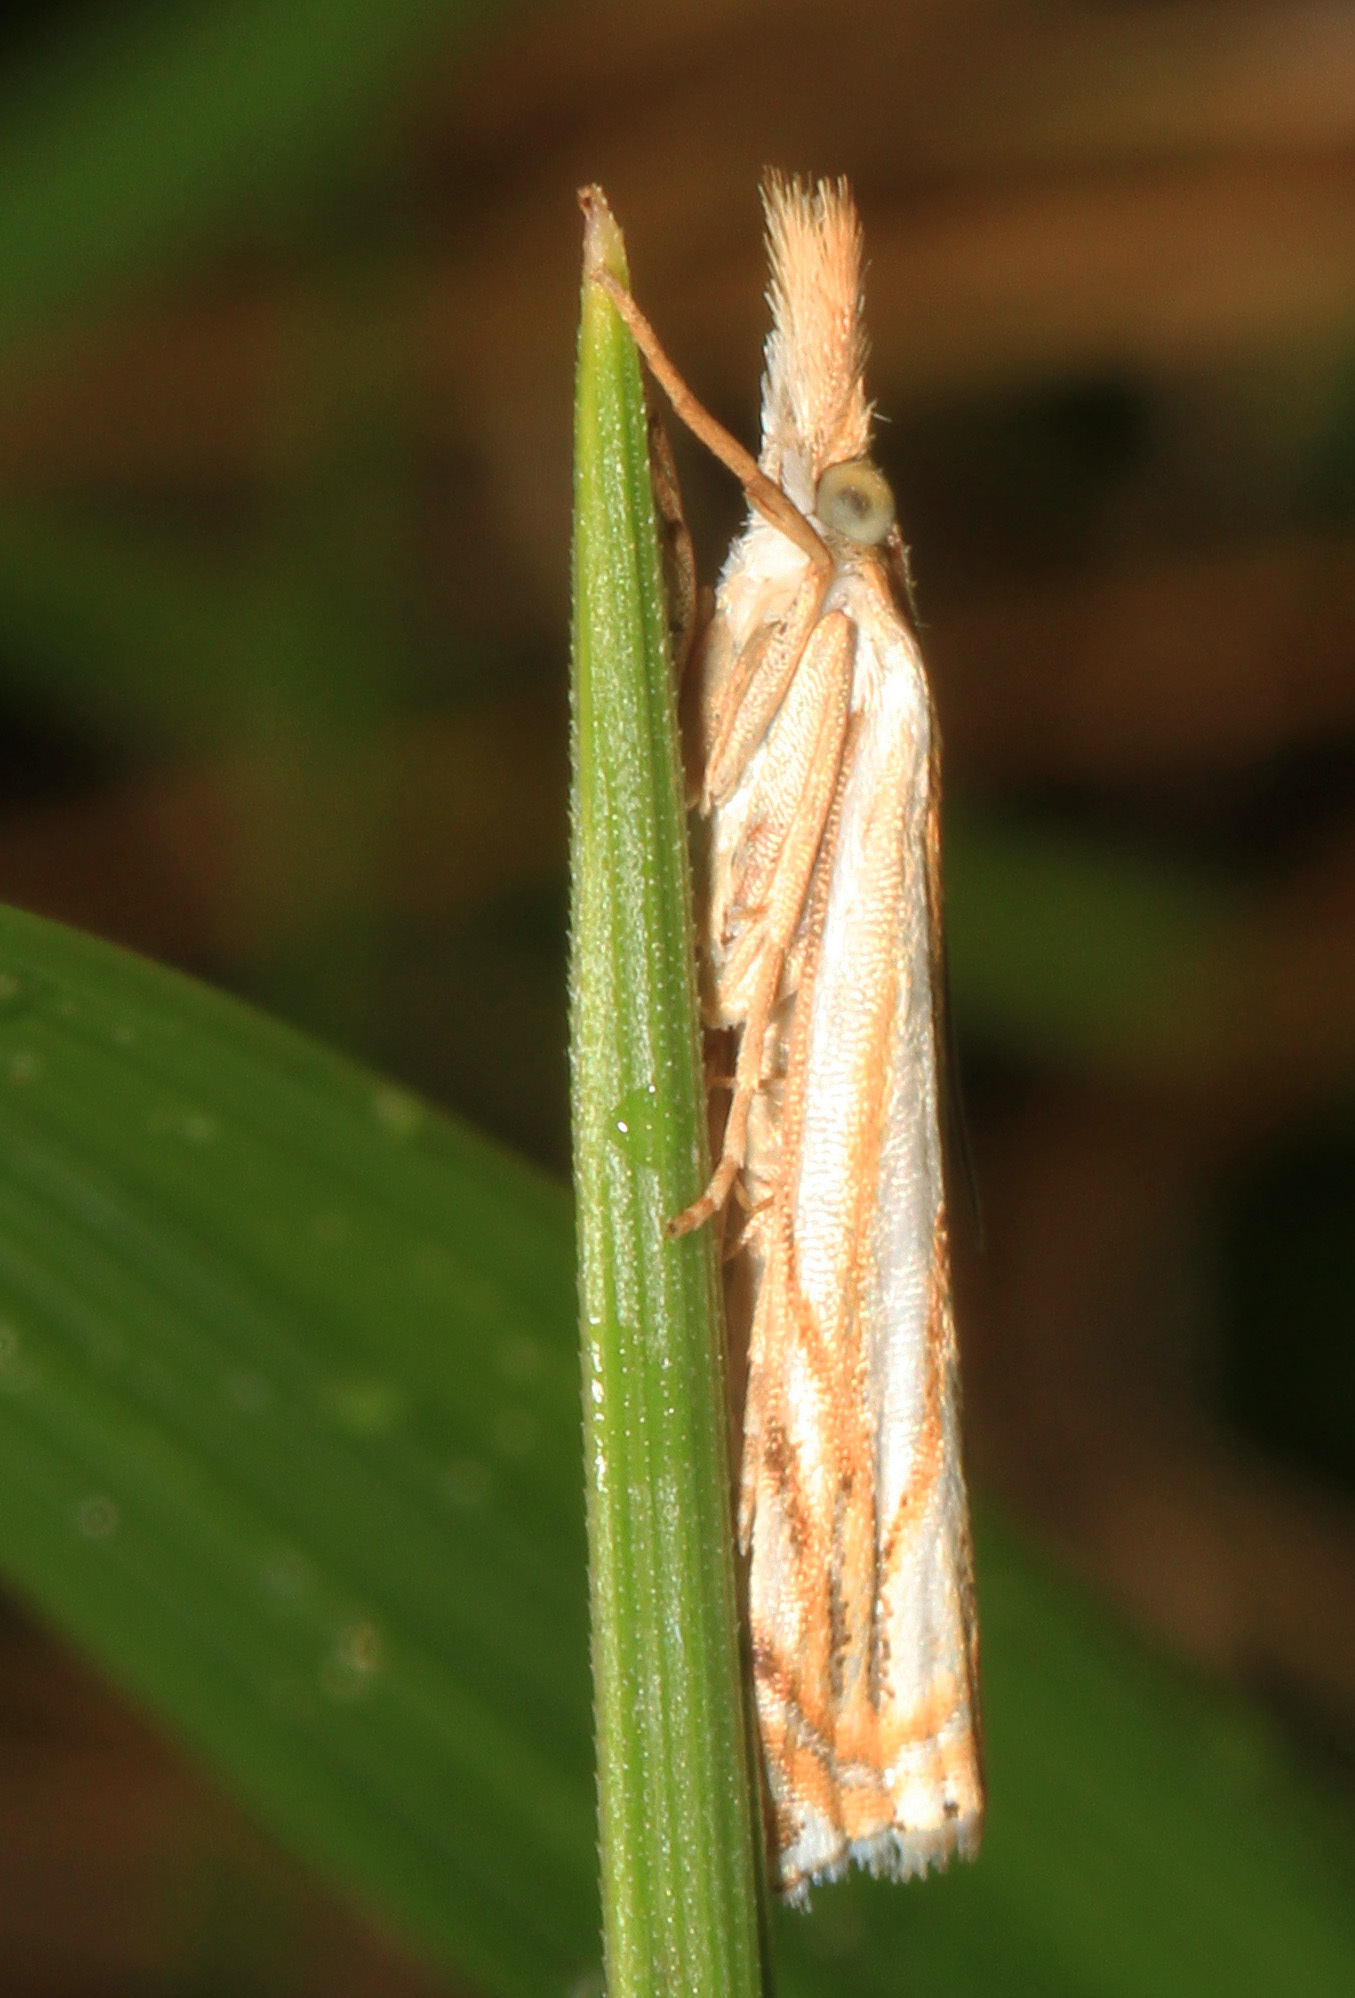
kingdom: Animalia
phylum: Arthropoda
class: Insecta
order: Lepidoptera
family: Crambidae
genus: Crambus
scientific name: Crambus saltuellus
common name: Pasture grass-veneer
